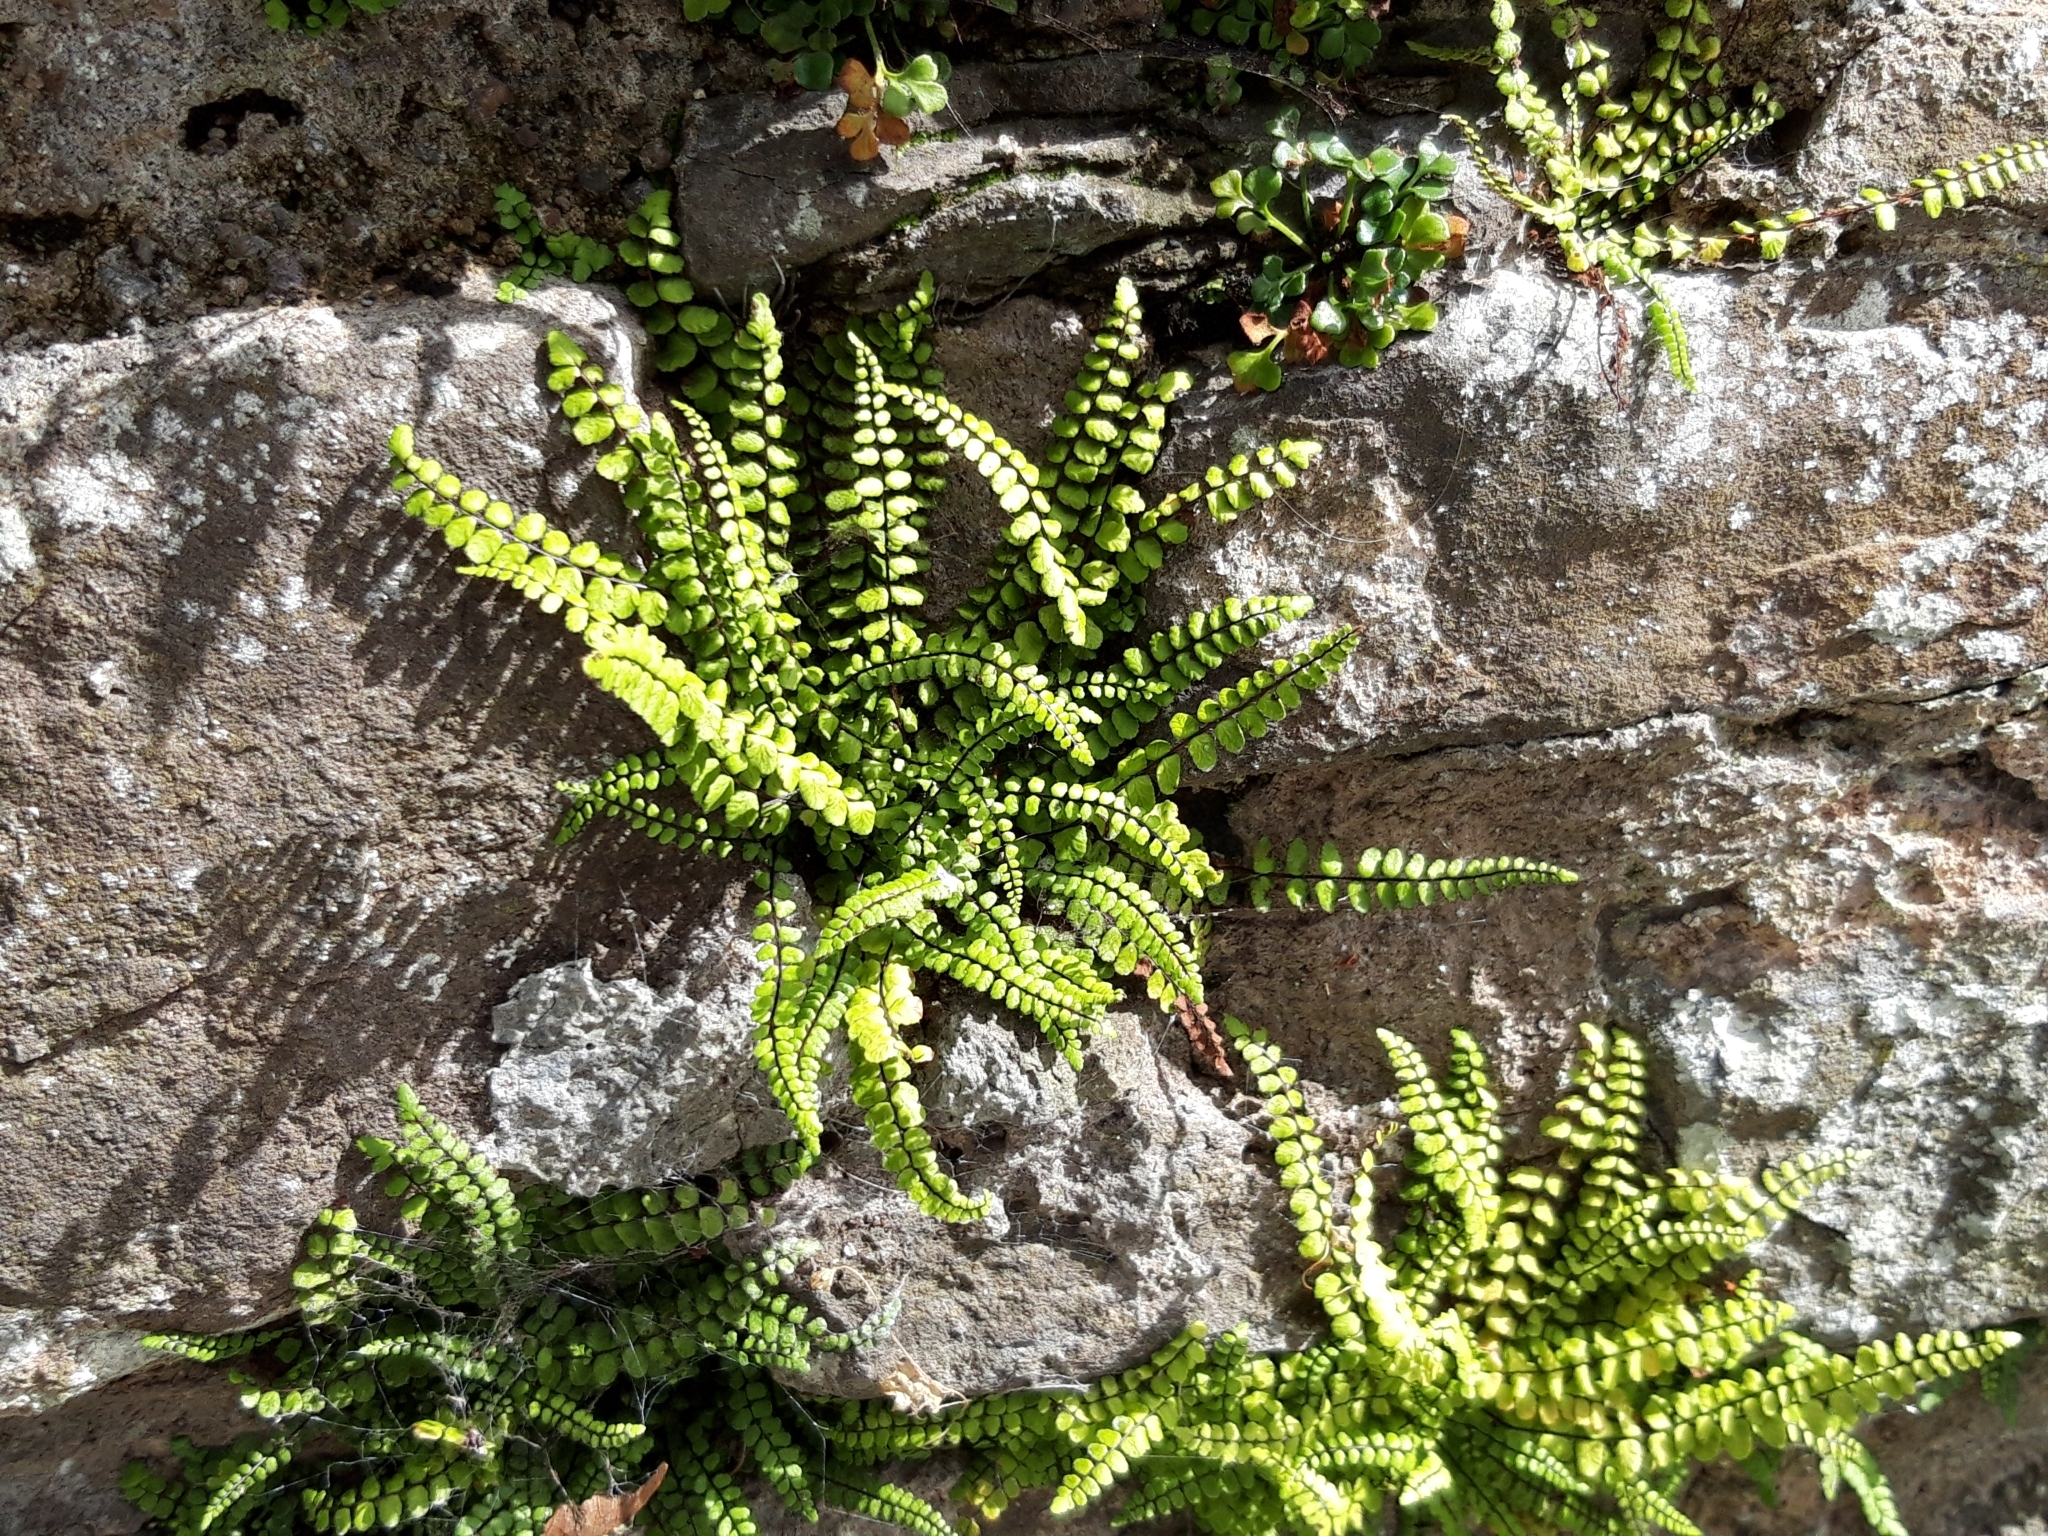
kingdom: Plantae
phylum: Tracheophyta
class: Polypodiopsida
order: Polypodiales
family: Aspleniaceae
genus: Asplenium
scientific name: Asplenium trichomanes
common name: Maidenhair spleenwort
